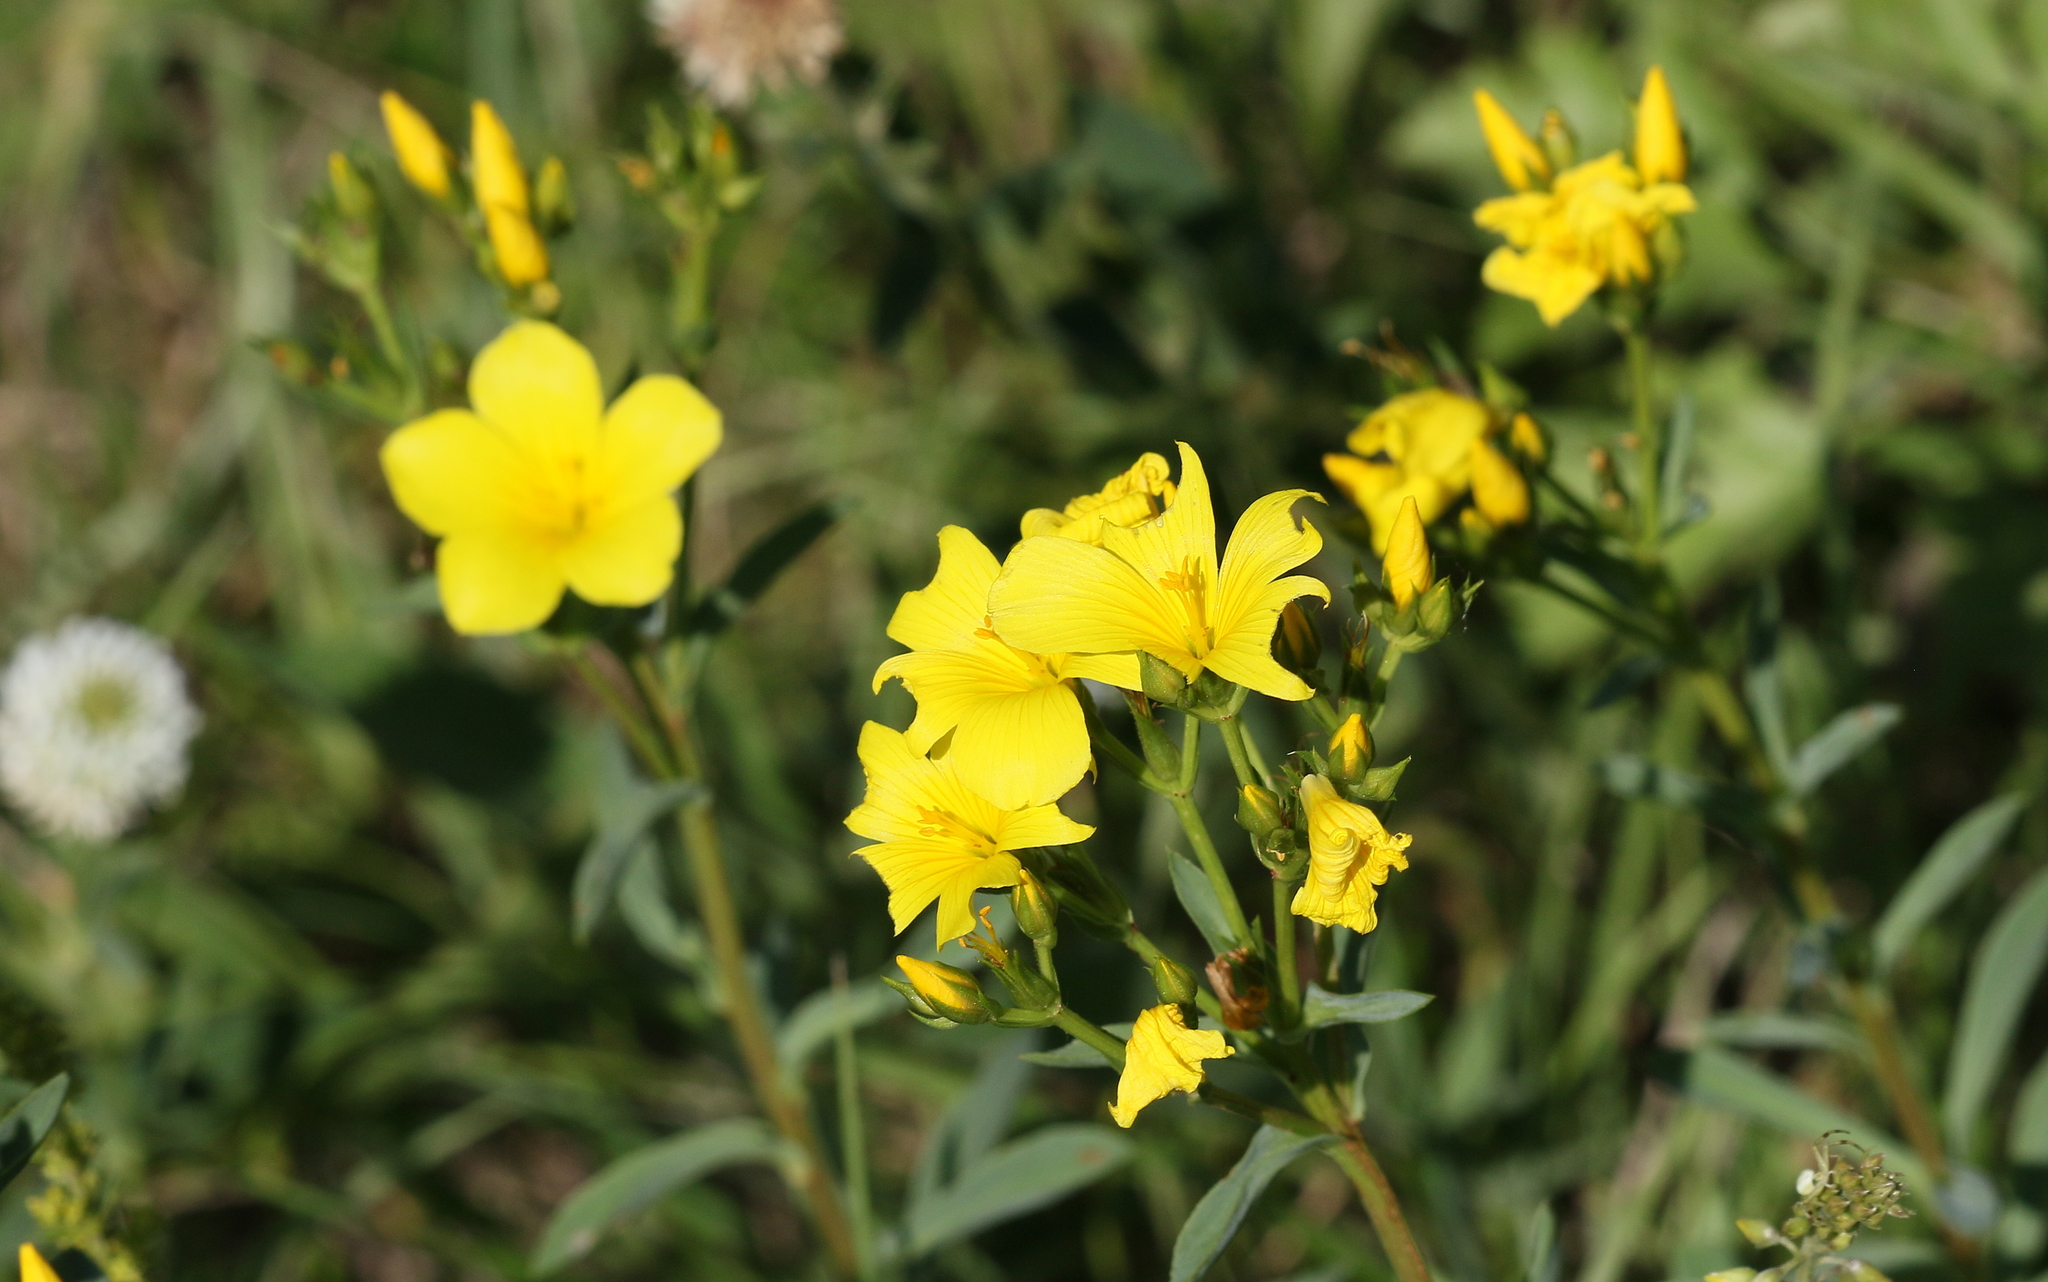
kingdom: Plantae
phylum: Tracheophyta
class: Magnoliopsida
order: Malpighiales
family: Linaceae
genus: Linum
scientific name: Linum flavum
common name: Yellow flax
